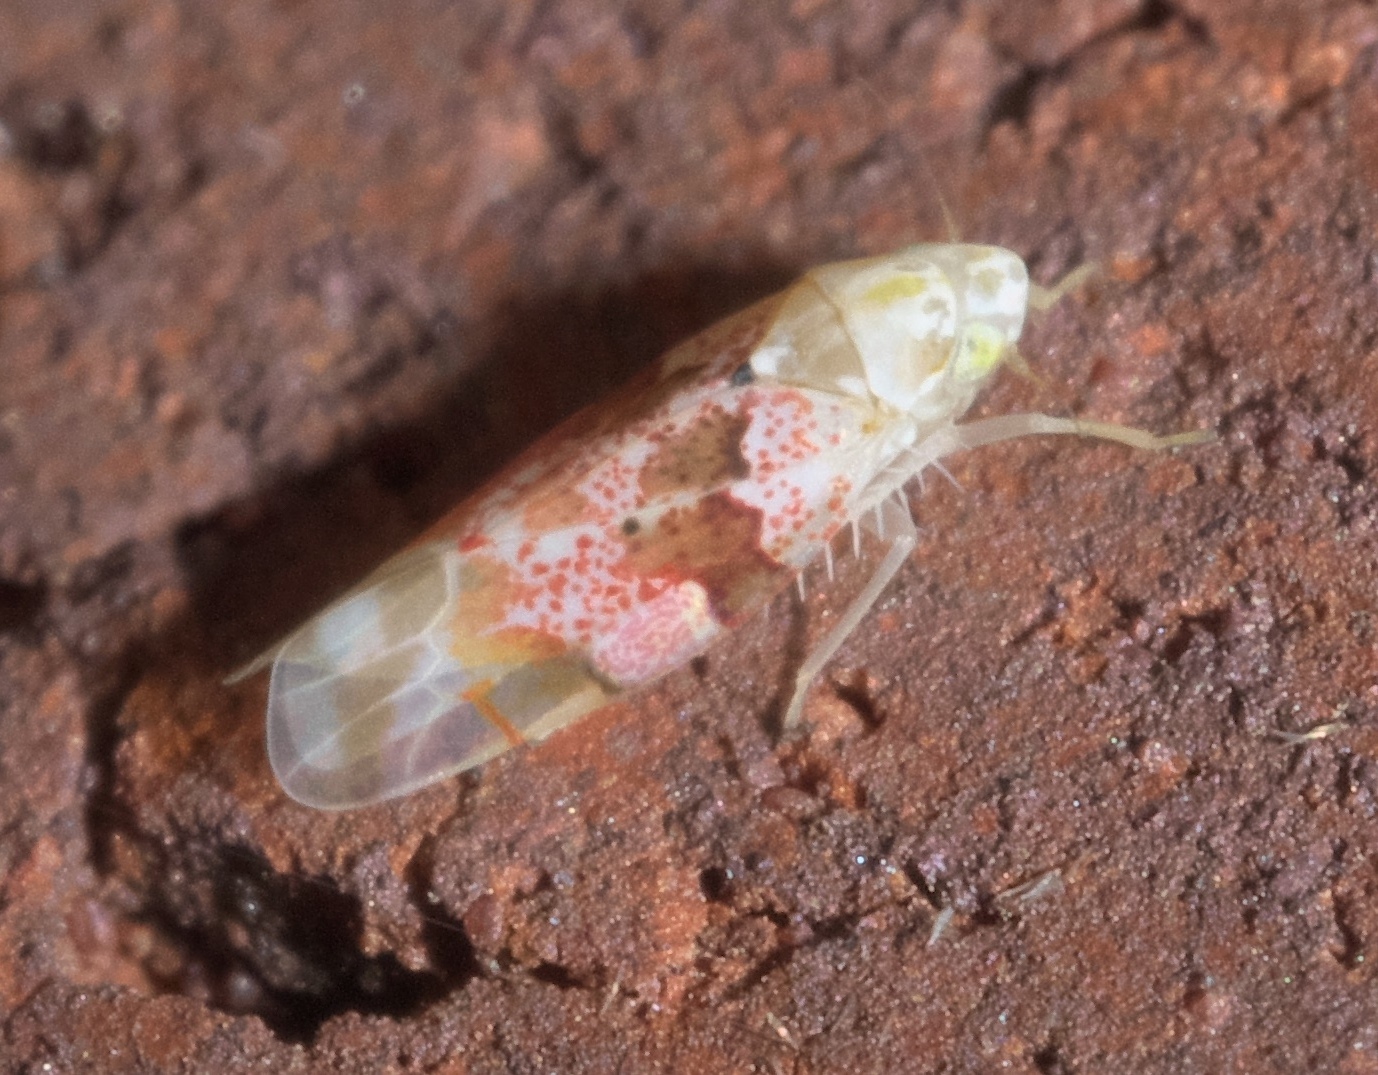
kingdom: Animalia
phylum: Arthropoda
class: Insecta
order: Hemiptera
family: Cicadellidae
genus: Hymetta
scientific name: Hymetta anthisma
